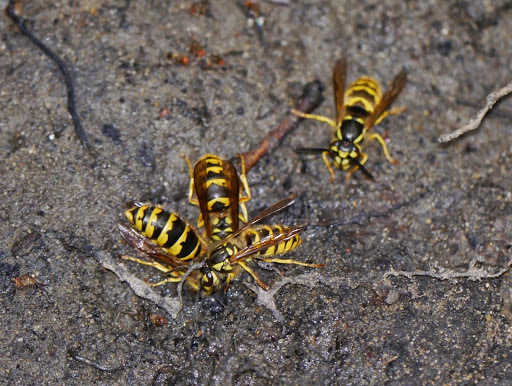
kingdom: Animalia
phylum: Arthropoda
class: Insecta
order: Hymenoptera
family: Vespidae
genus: Vespula
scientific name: Vespula flavopilosa
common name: Downy yellowjacket
